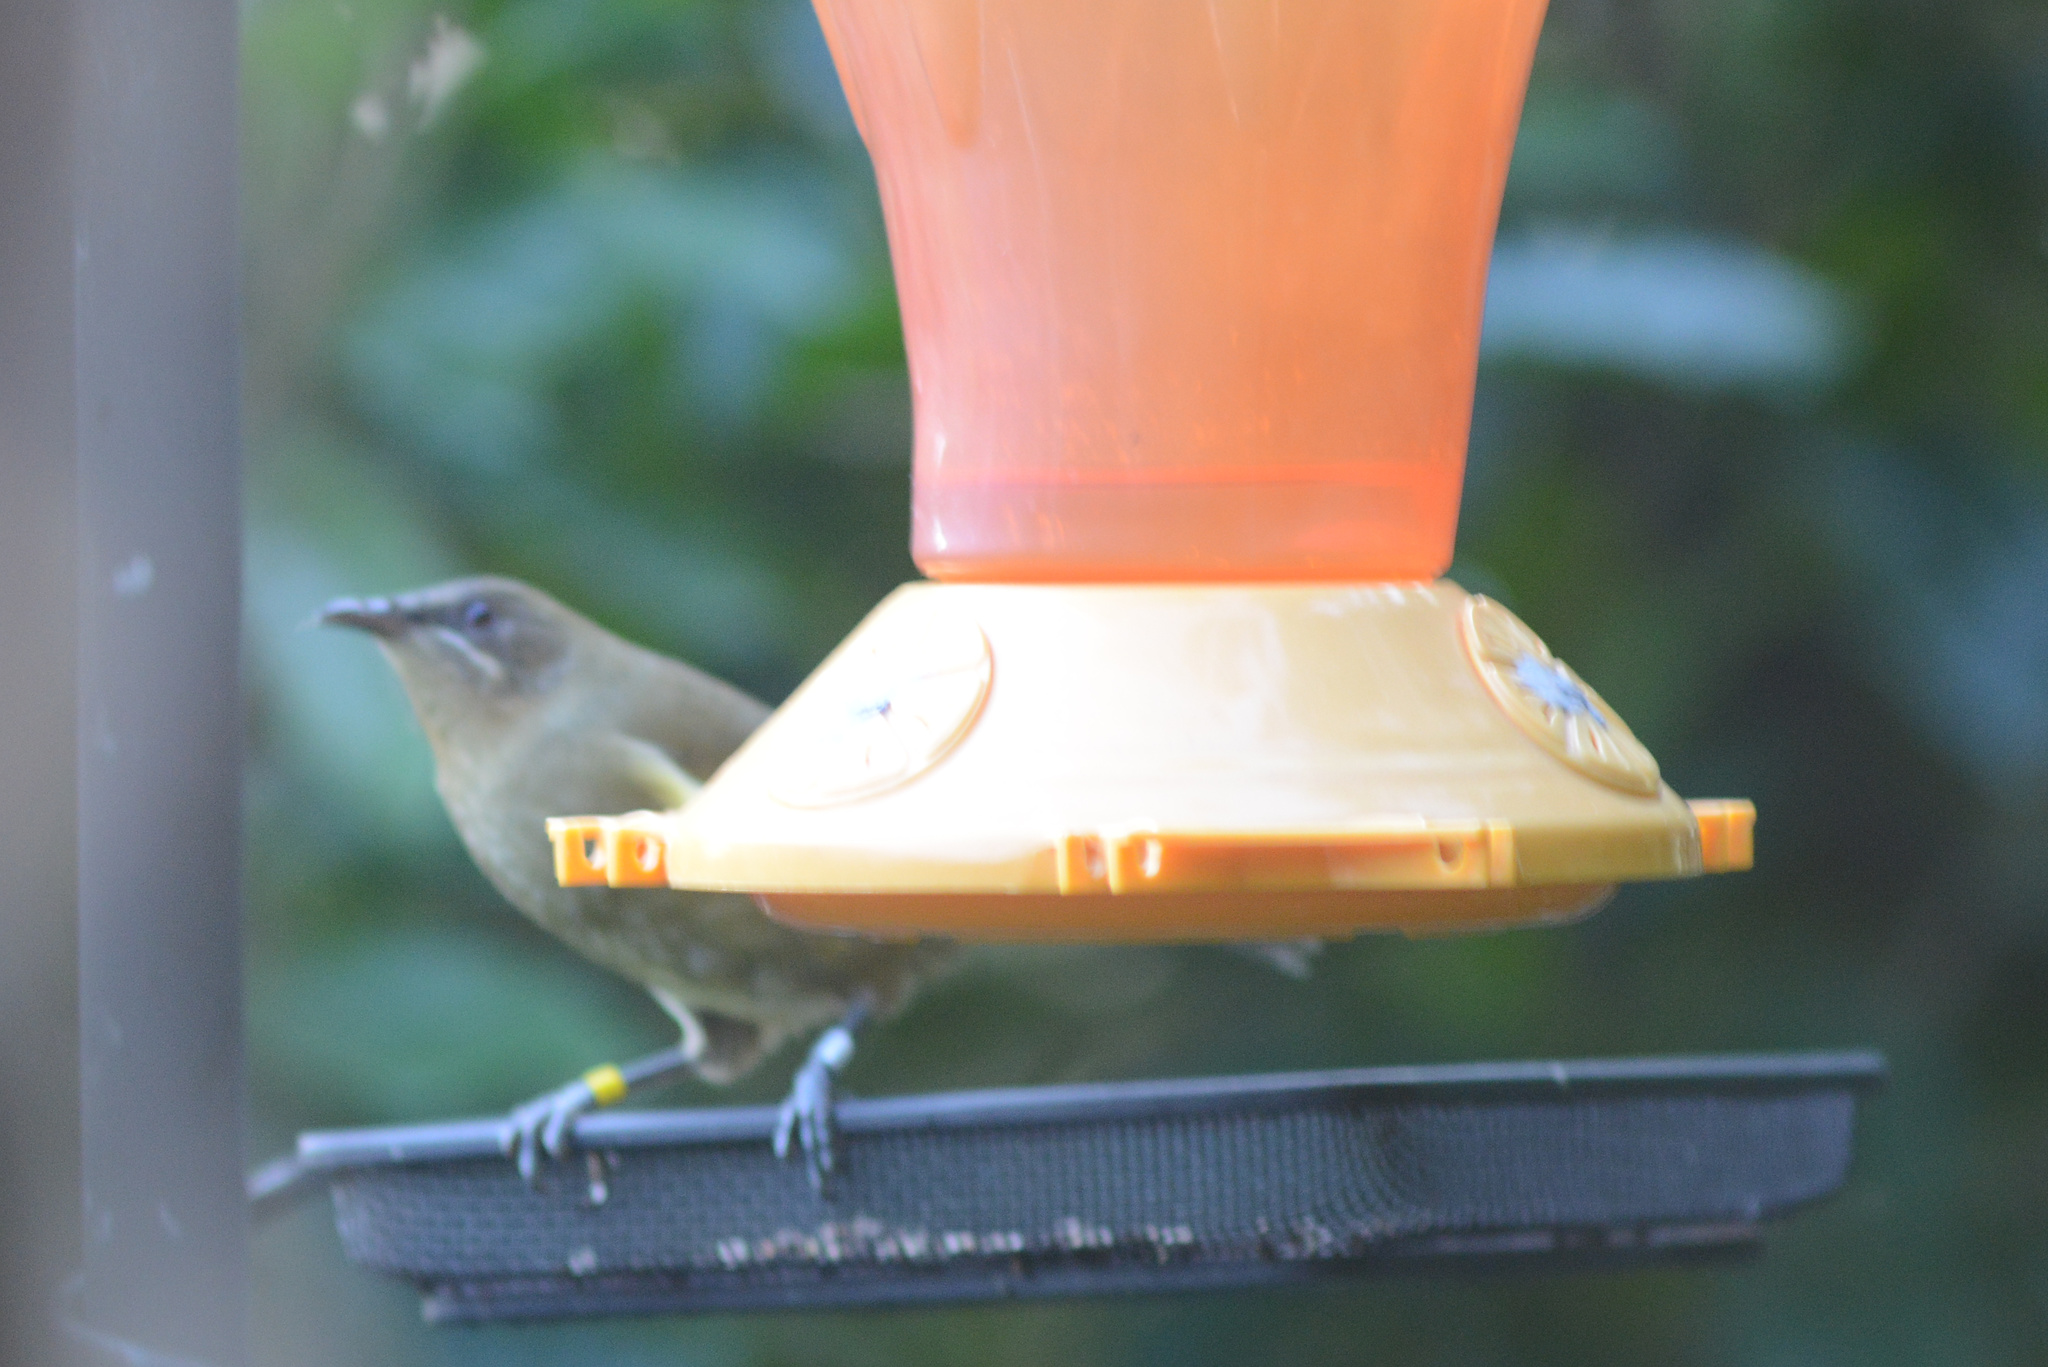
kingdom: Animalia
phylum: Chordata
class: Aves
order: Passeriformes
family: Meliphagidae
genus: Anthornis
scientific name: Anthornis melanura
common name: New zealand bellbird
